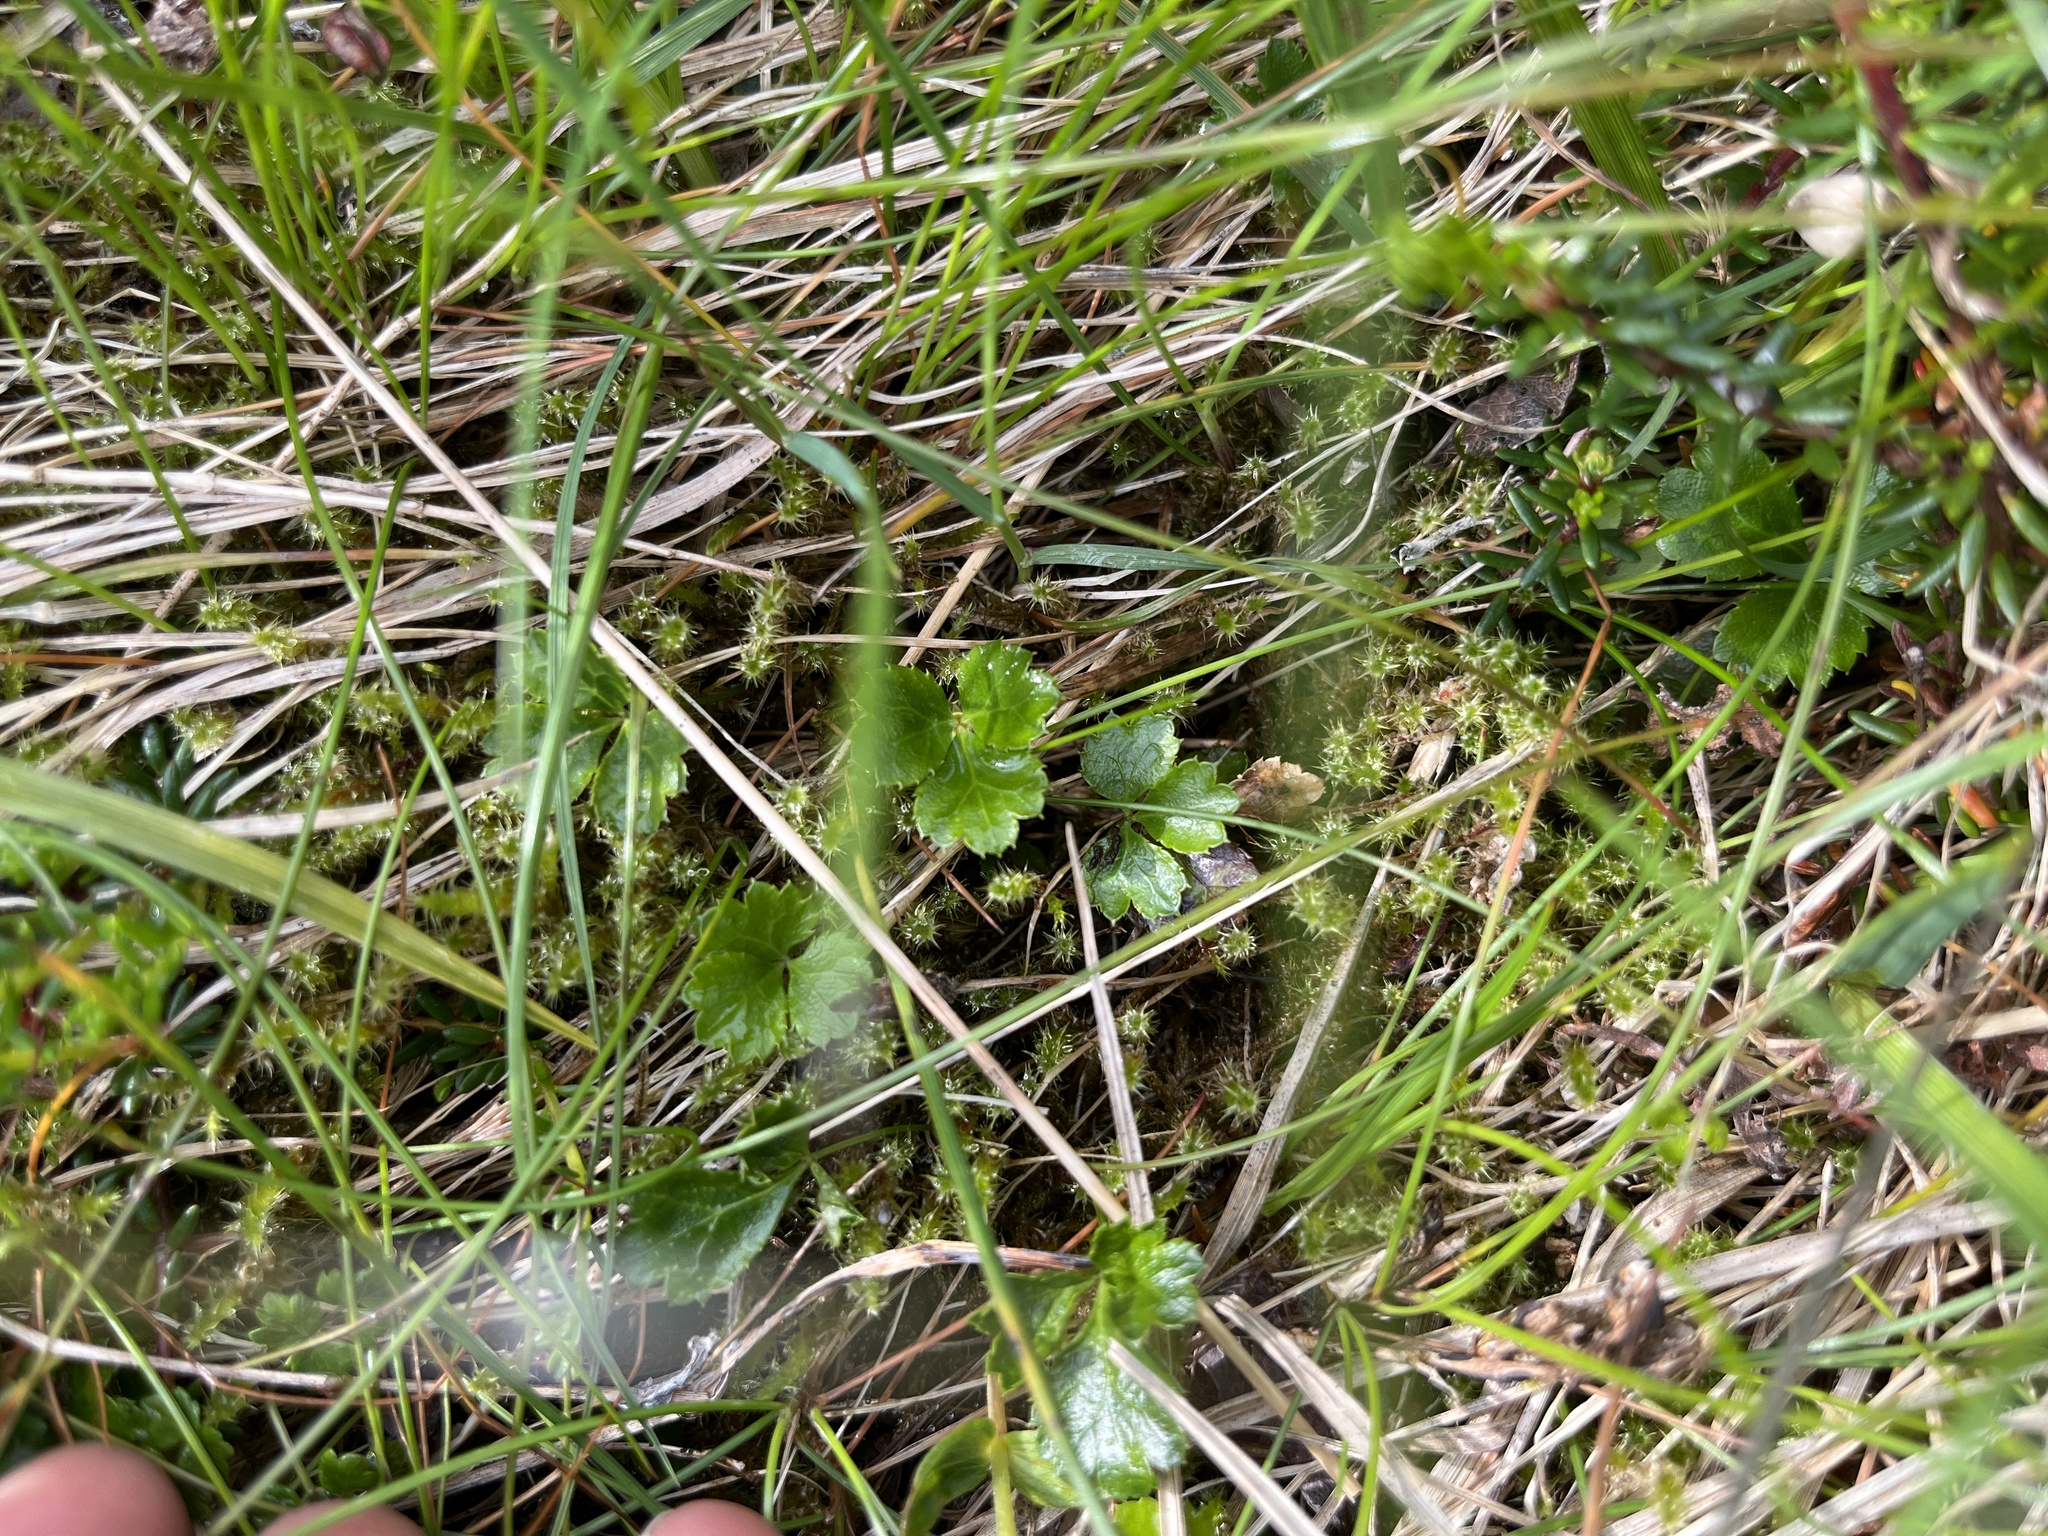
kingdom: Plantae
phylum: Tracheophyta
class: Magnoliopsida
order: Ranunculales
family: Ranunculaceae
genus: Coptis
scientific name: Coptis trifolia
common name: Canker-root
